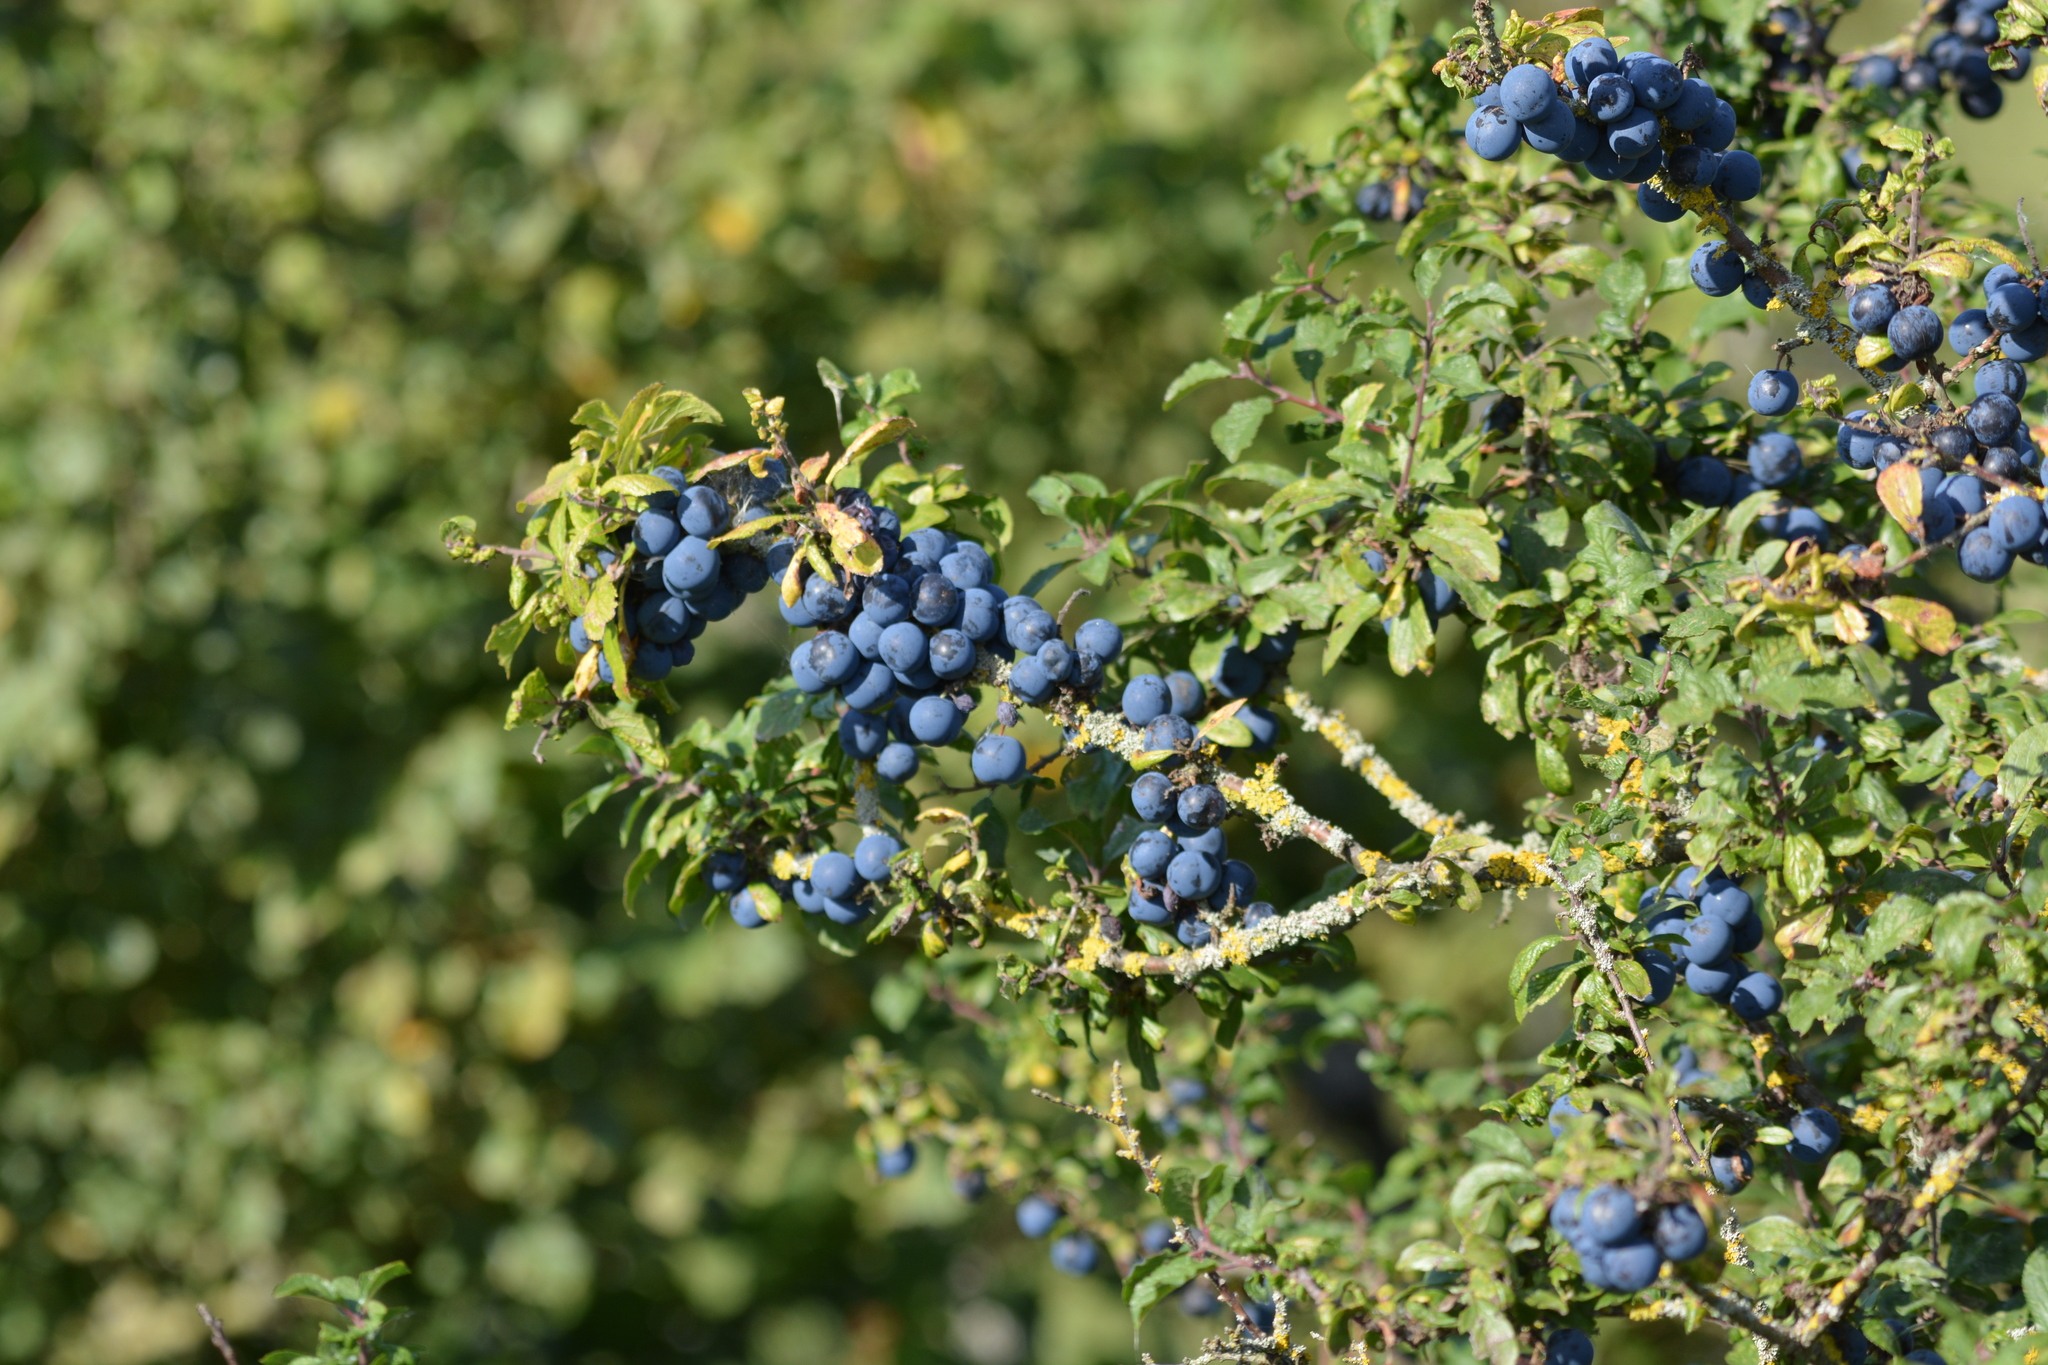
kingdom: Plantae
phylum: Tracheophyta
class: Magnoliopsida
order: Rosales
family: Rosaceae
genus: Prunus
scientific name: Prunus spinosa
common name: Blackthorn
